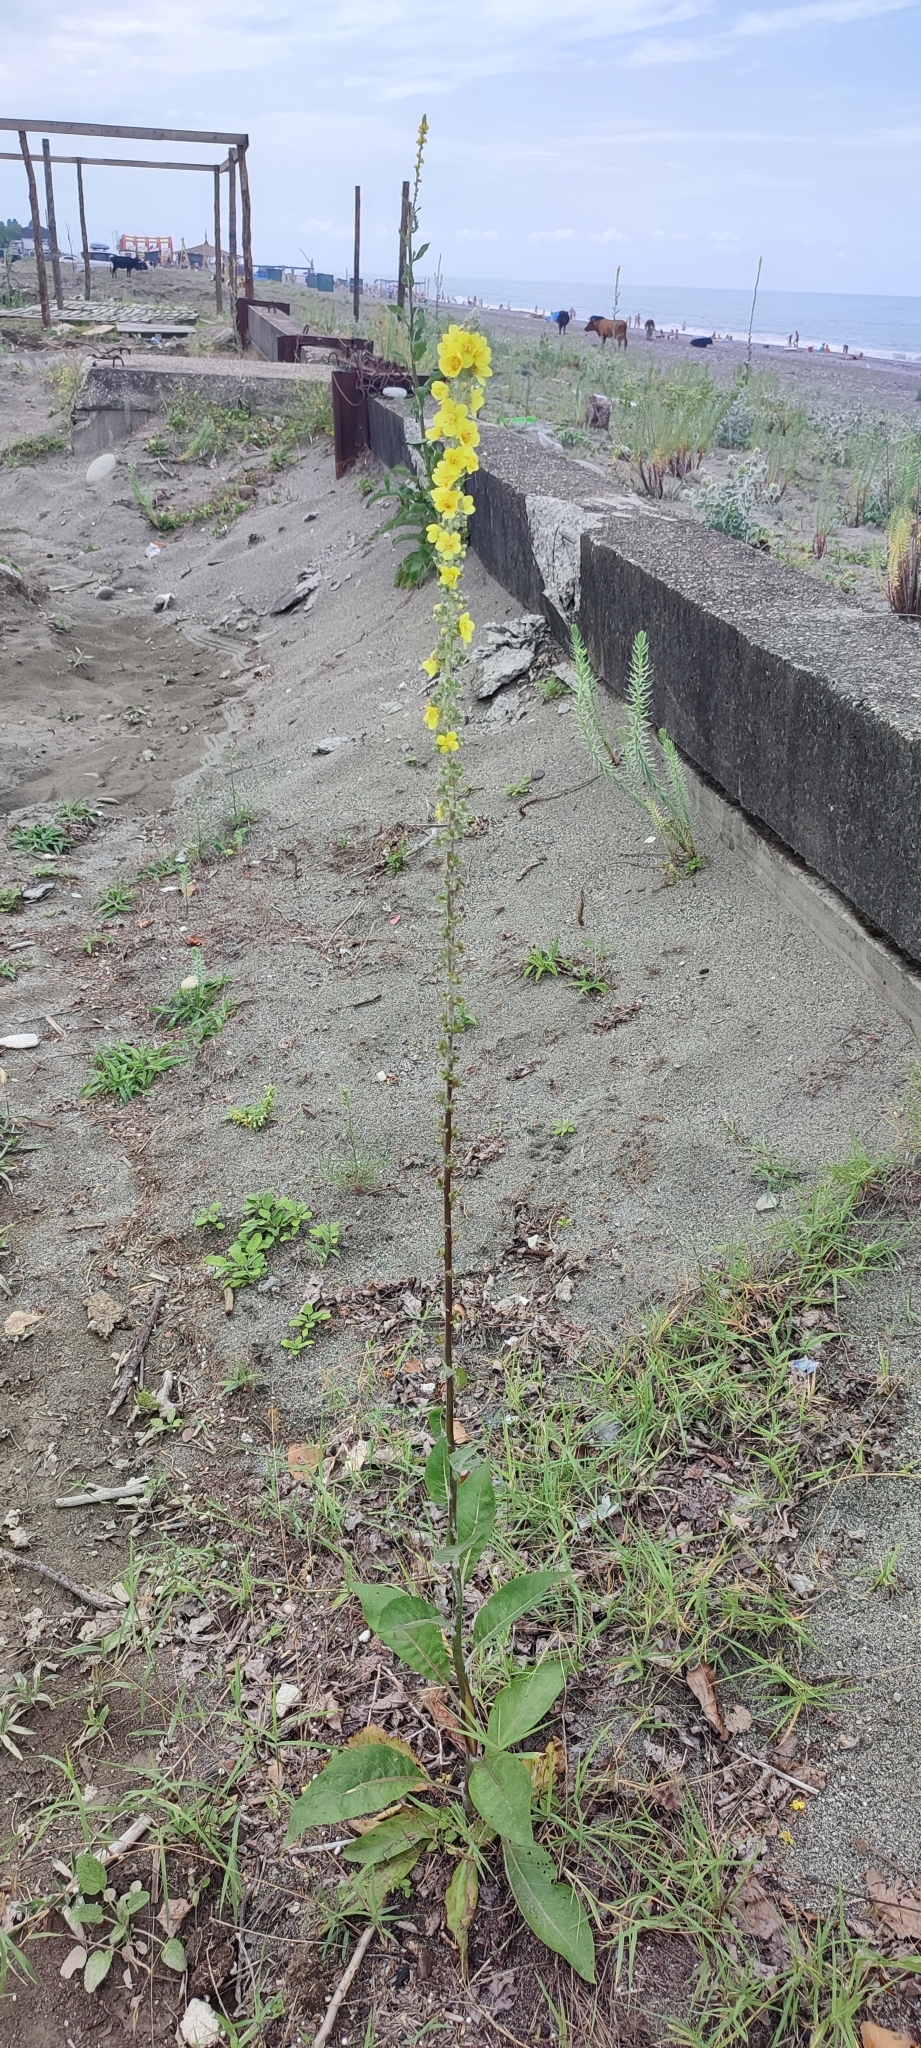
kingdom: Plantae
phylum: Tracheophyta
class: Magnoliopsida
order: Lamiales
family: Scrophulariaceae
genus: Verbascum
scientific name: Verbascum gnaphalodes
